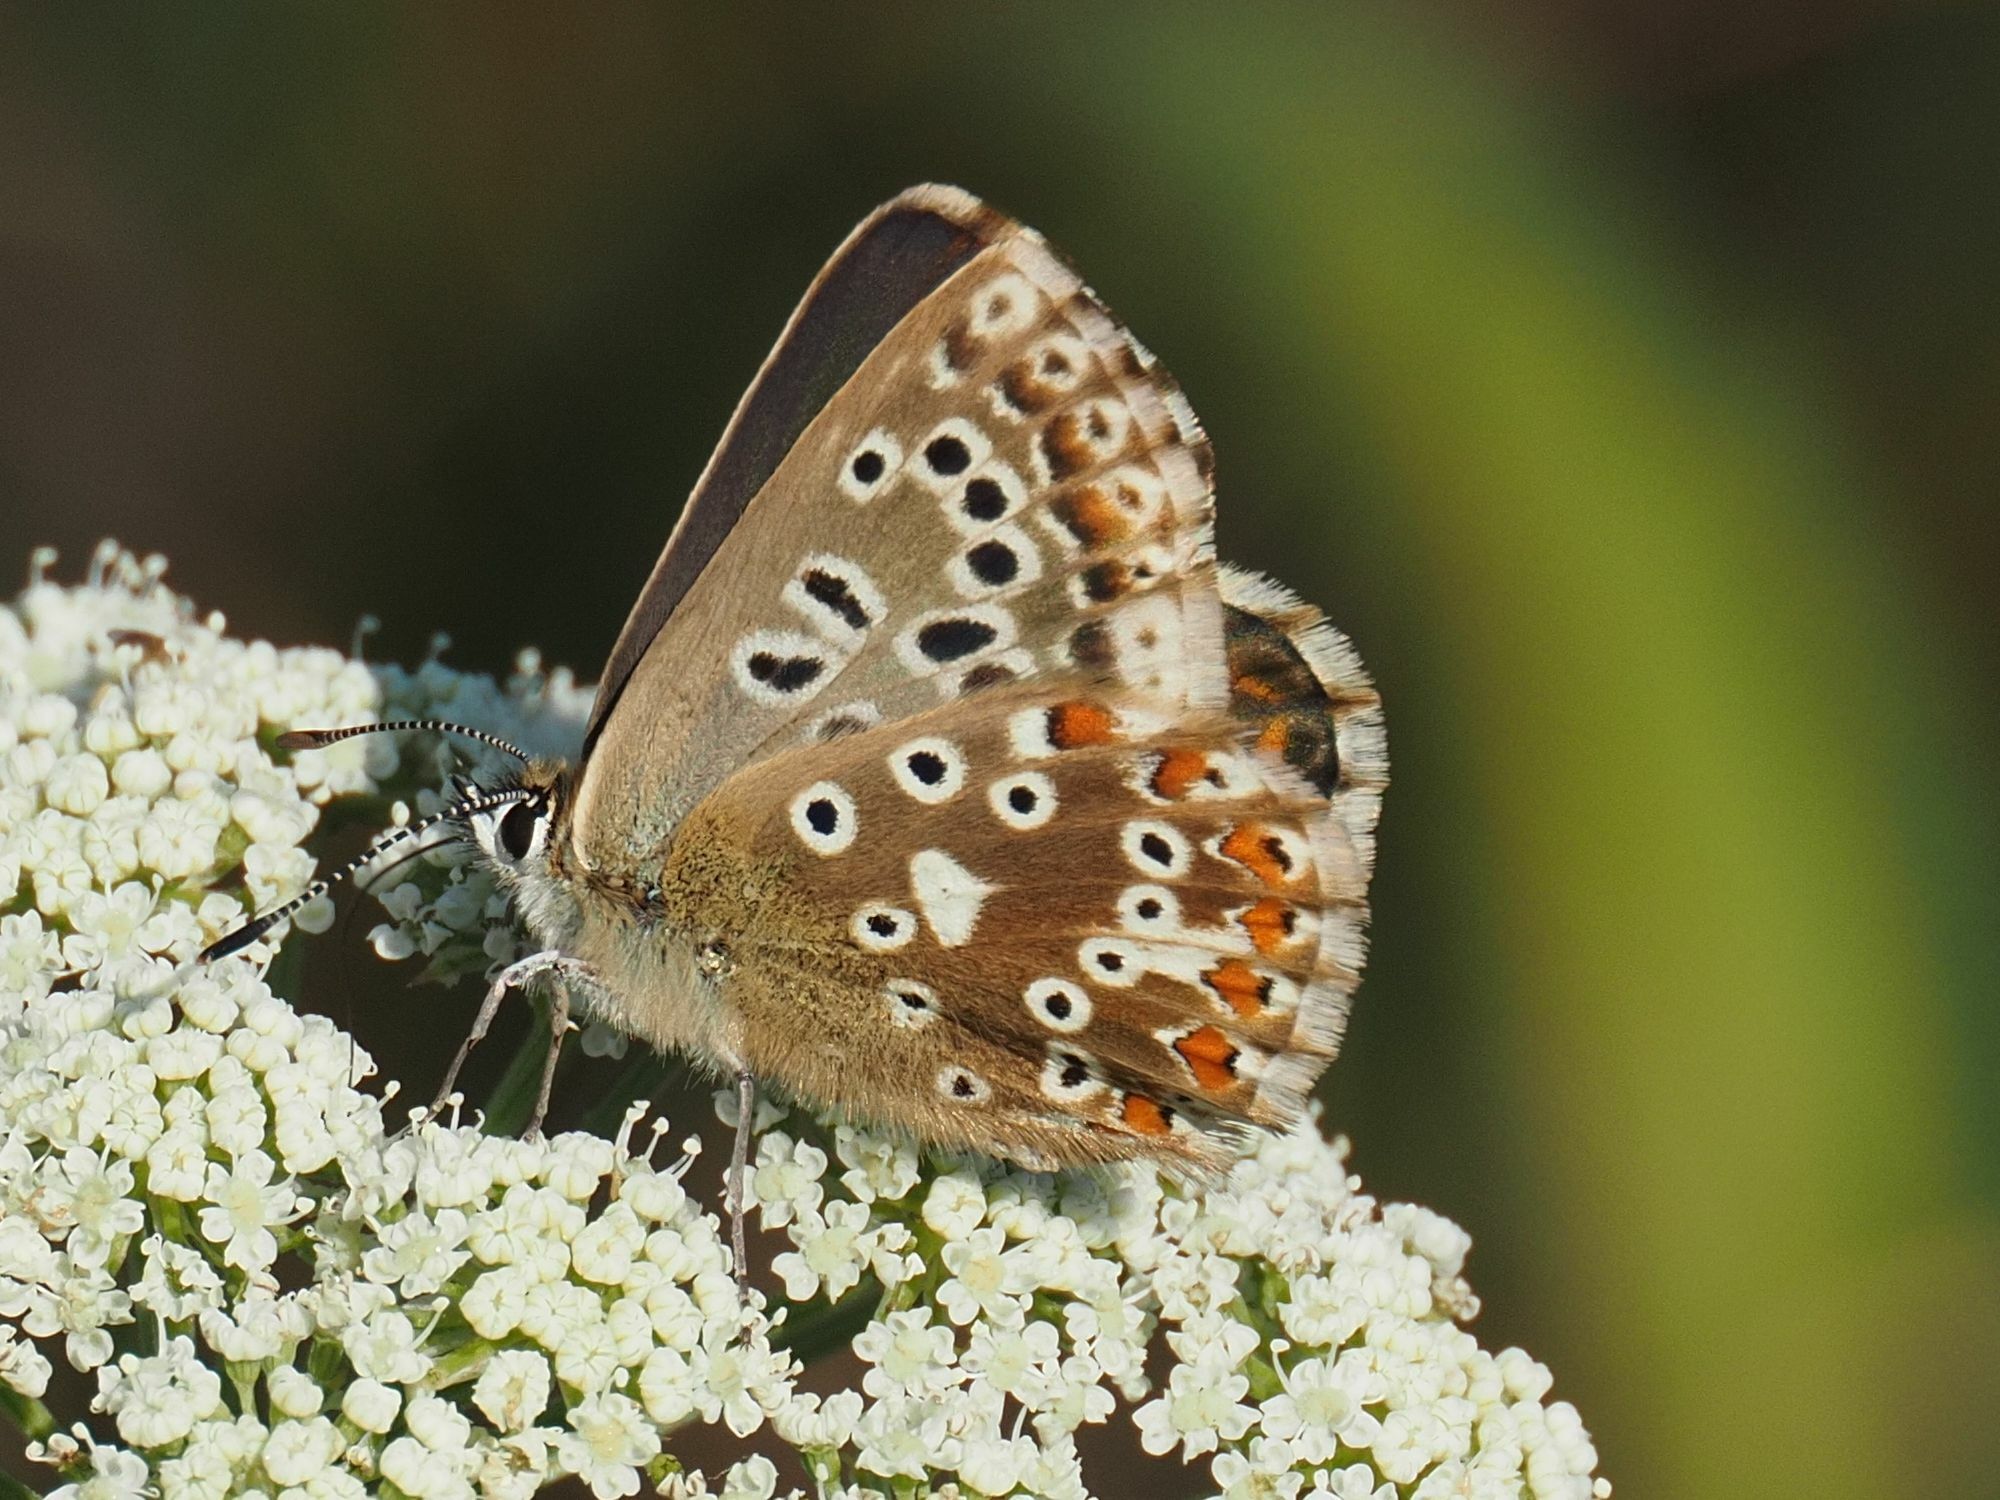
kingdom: Animalia
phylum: Arthropoda
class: Insecta
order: Lepidoptera
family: Lycaenidae
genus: Lysandra
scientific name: Lysandra coridon
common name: Chalkhill blue
